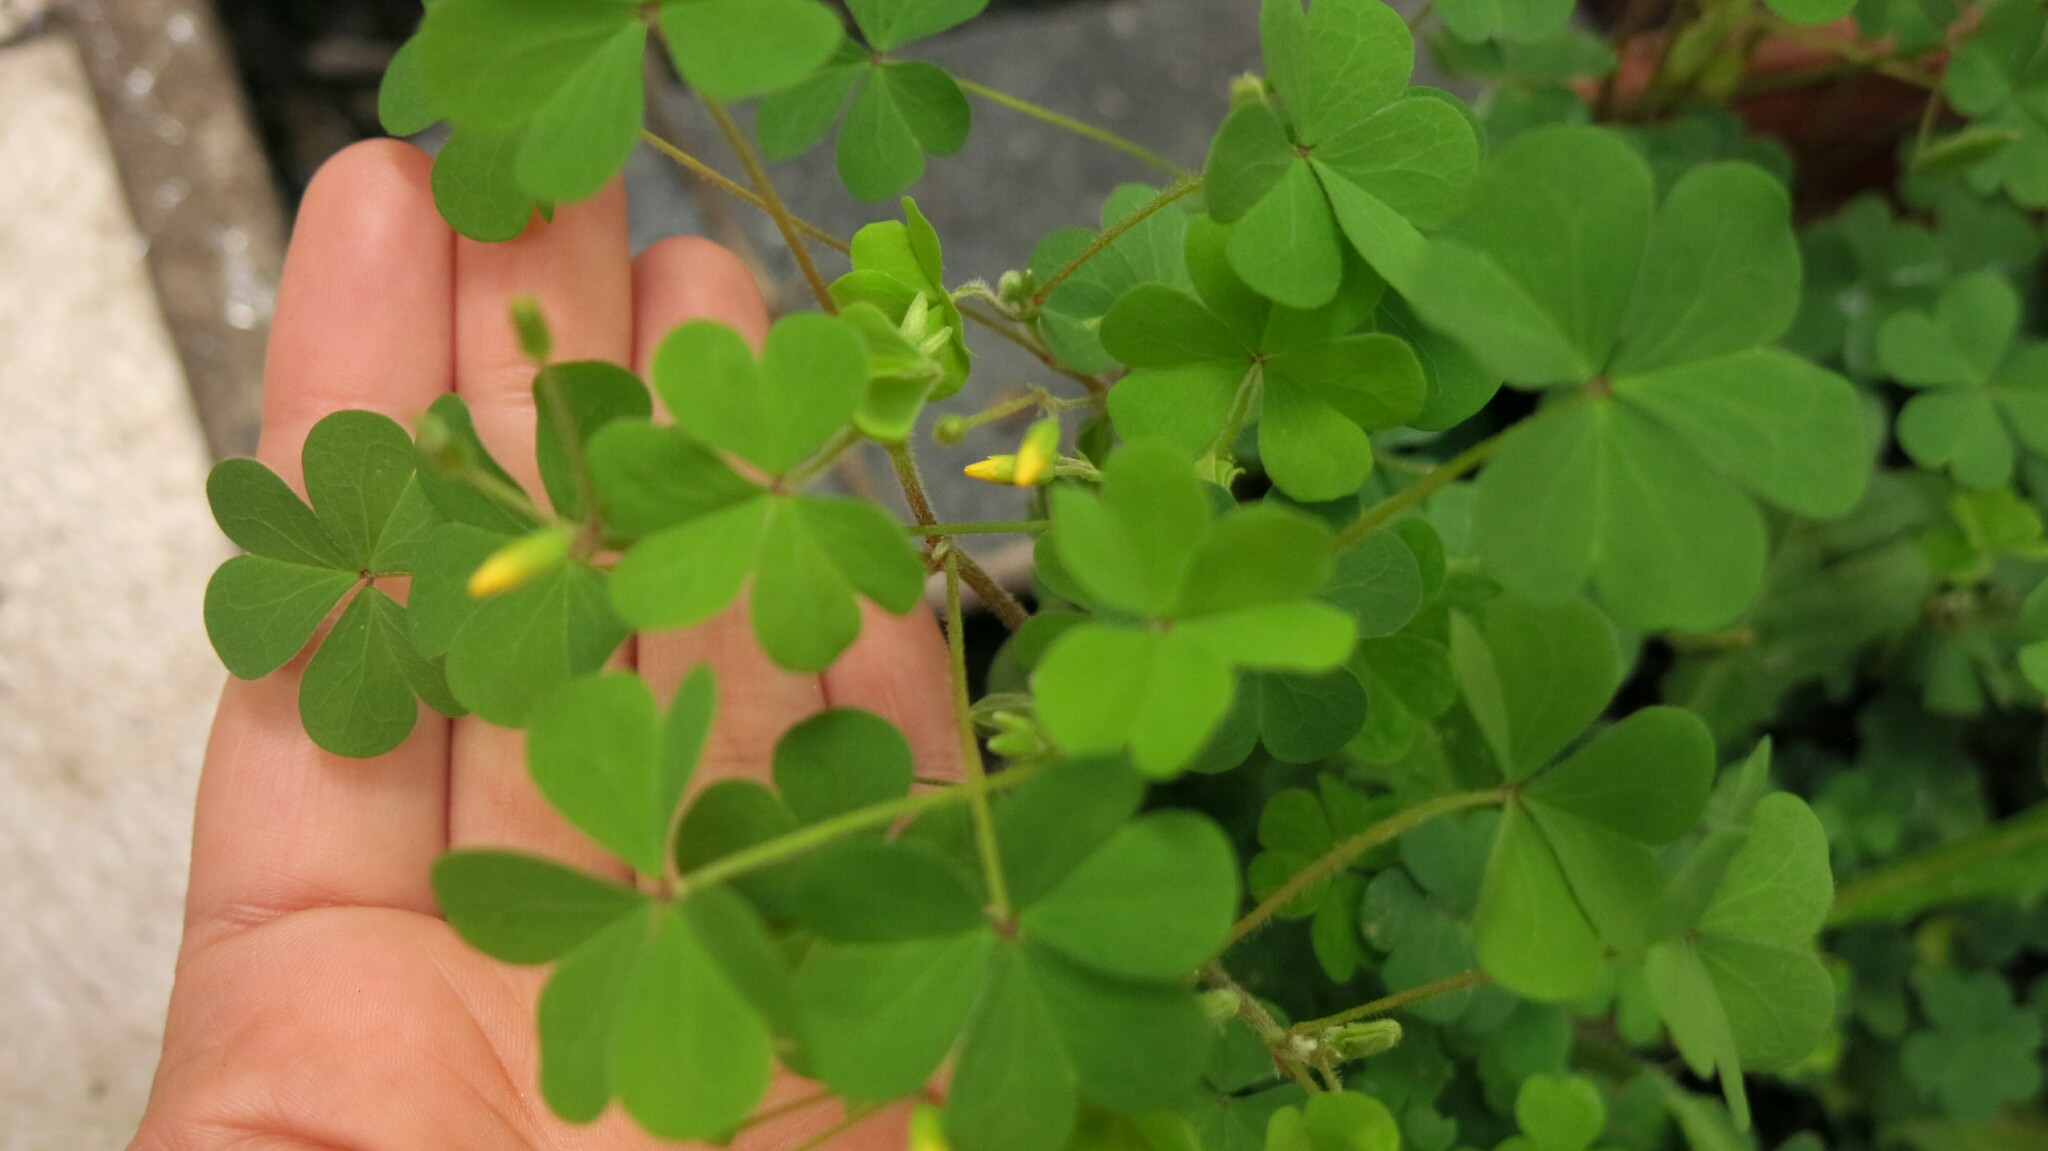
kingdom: Plantae
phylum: Tracheophyta
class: Magnoliopsida
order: Oxalidales
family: Oxalidaceae
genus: Oxalis
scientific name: Oxalis corniculata
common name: Procumbent yellow-sorrel
